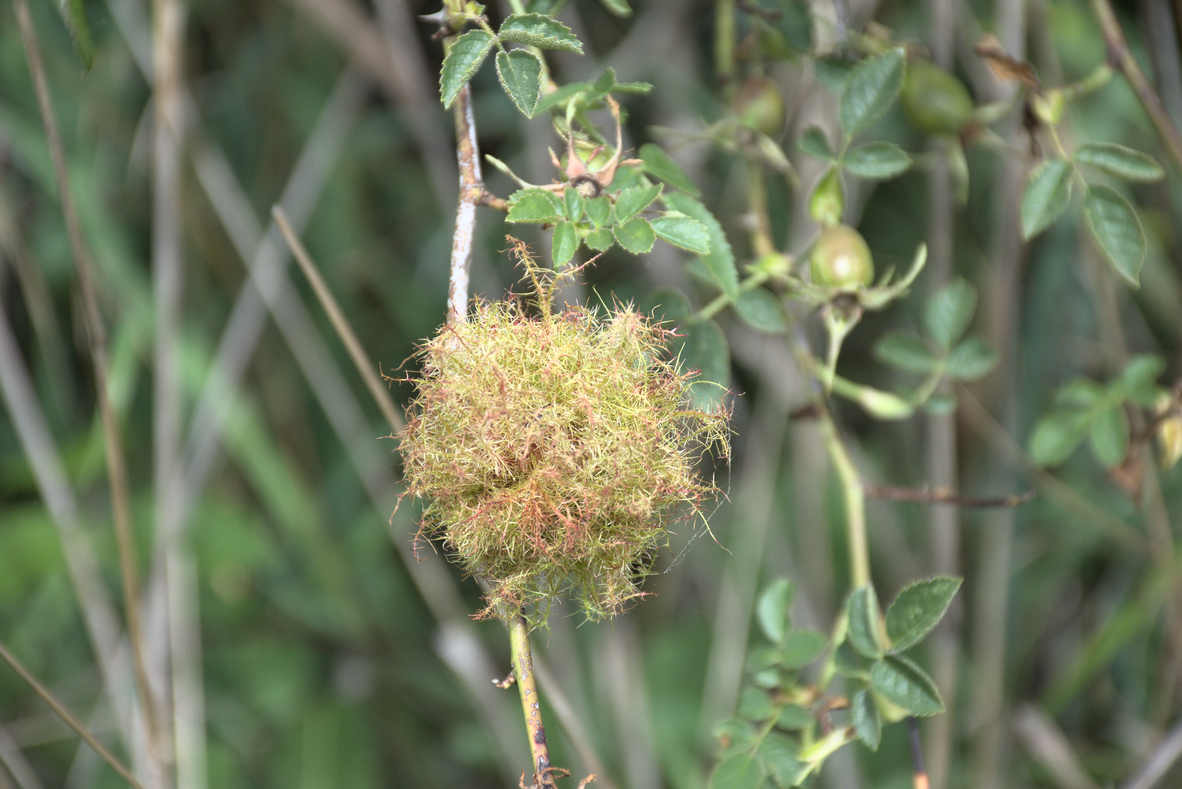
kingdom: Animalia
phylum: Arthropoda
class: Insecta
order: Hymenoptera
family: Cynipidae
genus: Diplolepis
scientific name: Diplolepis rosae
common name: Bedeguar gall
